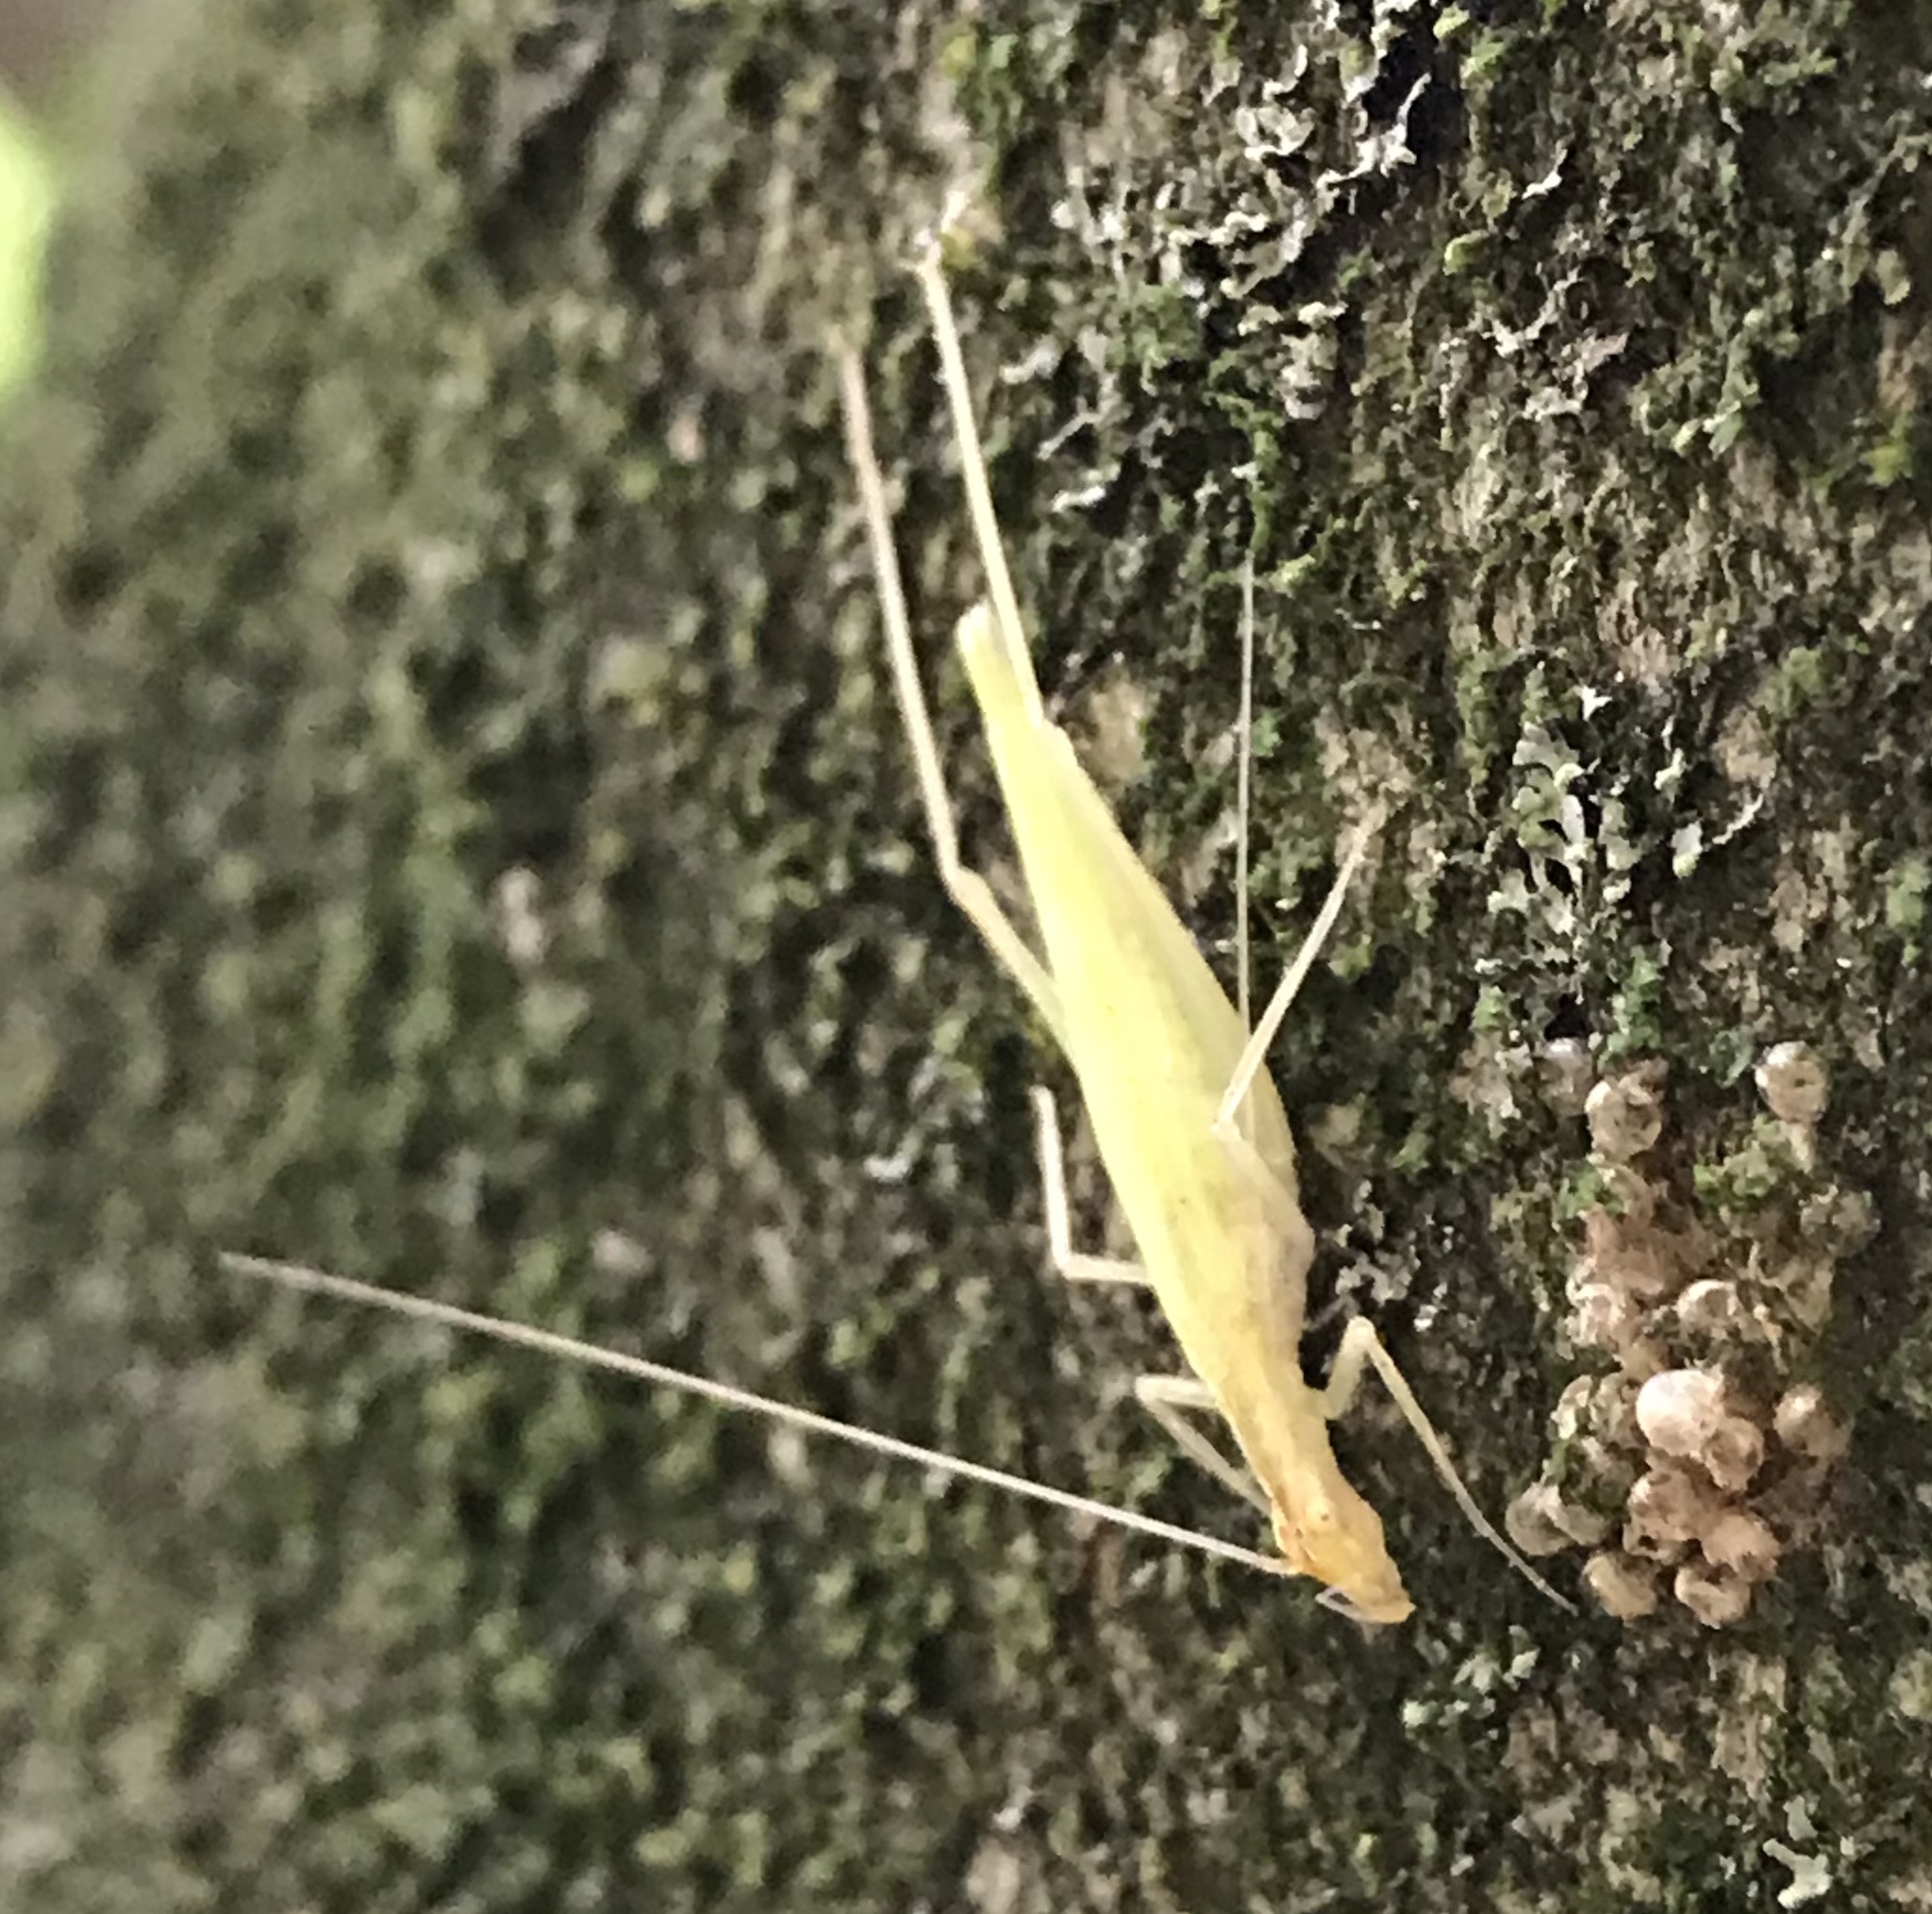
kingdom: Animalia
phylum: Arthropoda
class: Insecta
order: Orthoptera
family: Gryllidae
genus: Oecanthus
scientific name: Oecanthus niveus
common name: Narrow-winged tree cricket
